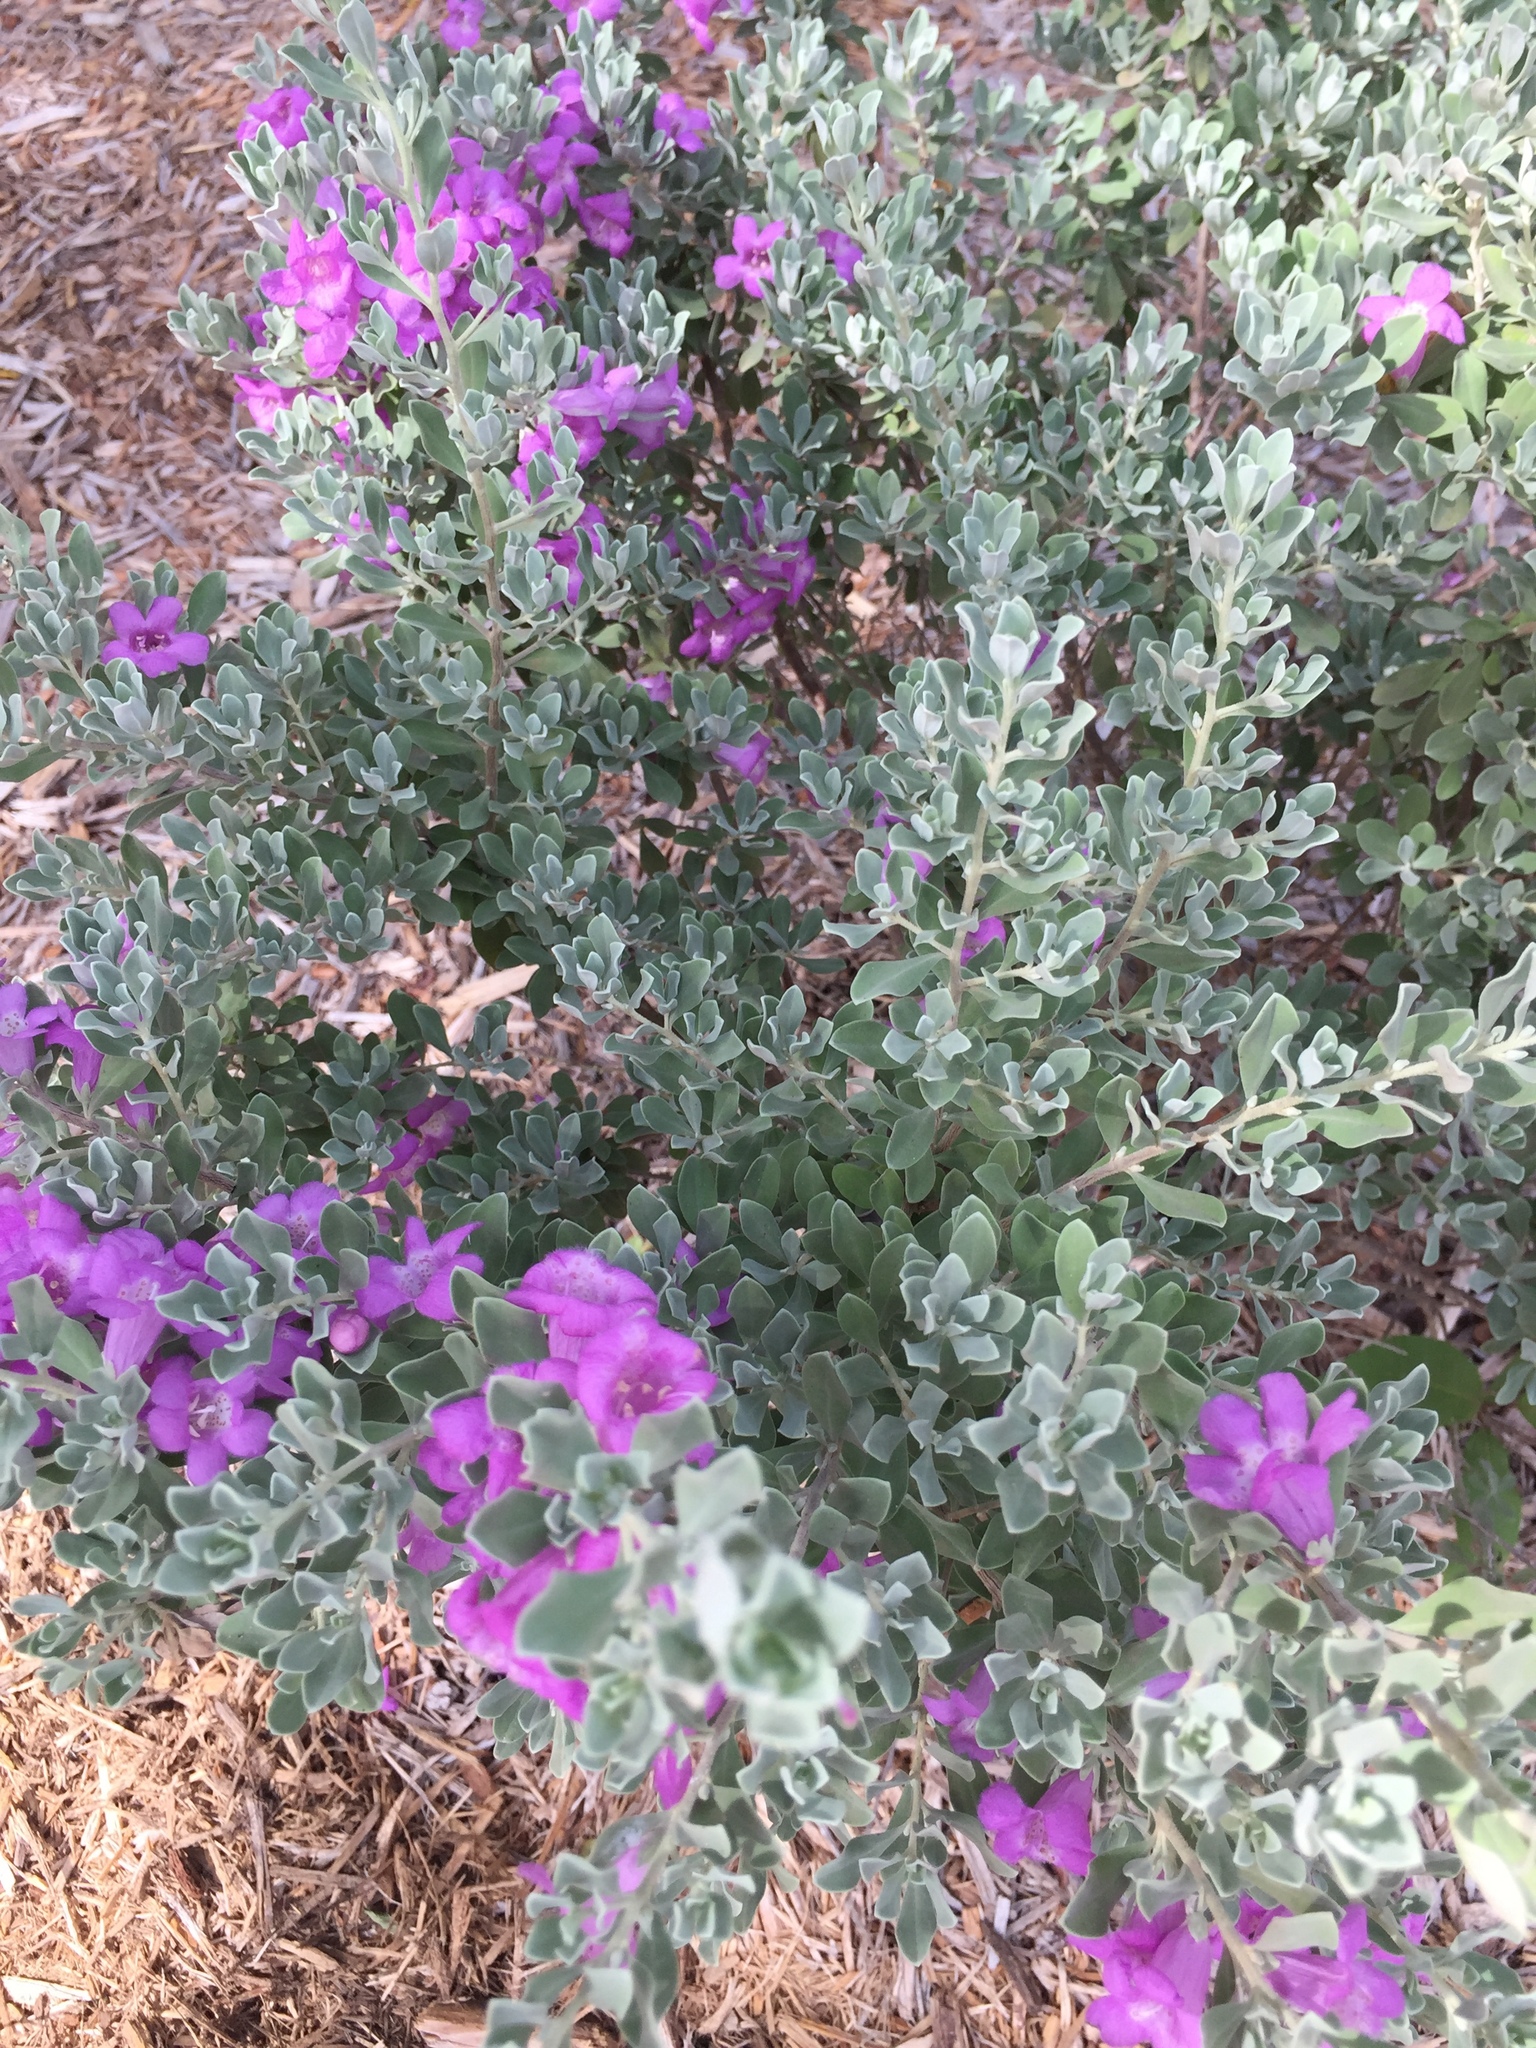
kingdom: Plantae
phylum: Tracheophyta
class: Magnoliopsida
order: Lamiales
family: Scrophulariaceae
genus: Leucophyllum
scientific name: Leucophyllum frutescens
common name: Texas silverleaf
